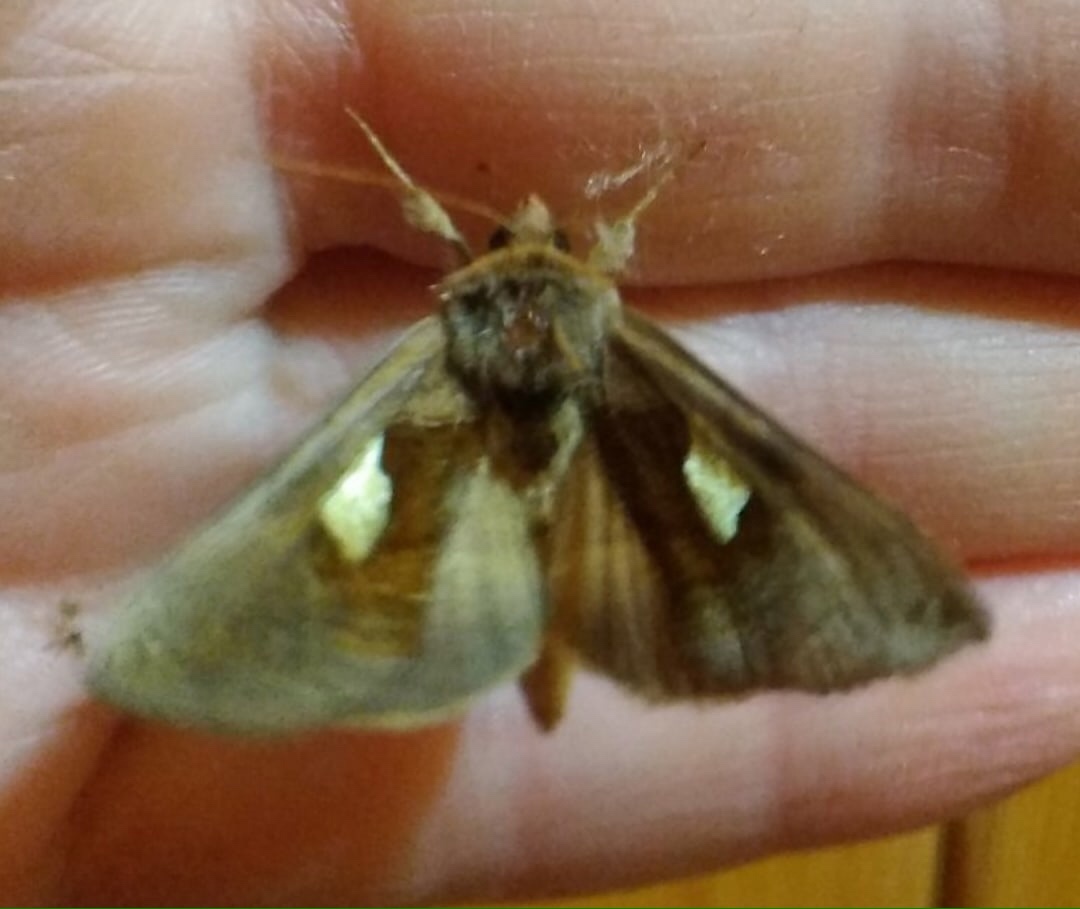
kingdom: Animalia
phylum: Arthropoda
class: Insecta
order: Lepidoptera
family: Noctuidae
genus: Autographa
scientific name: Autographa bractea
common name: Gold spangle
